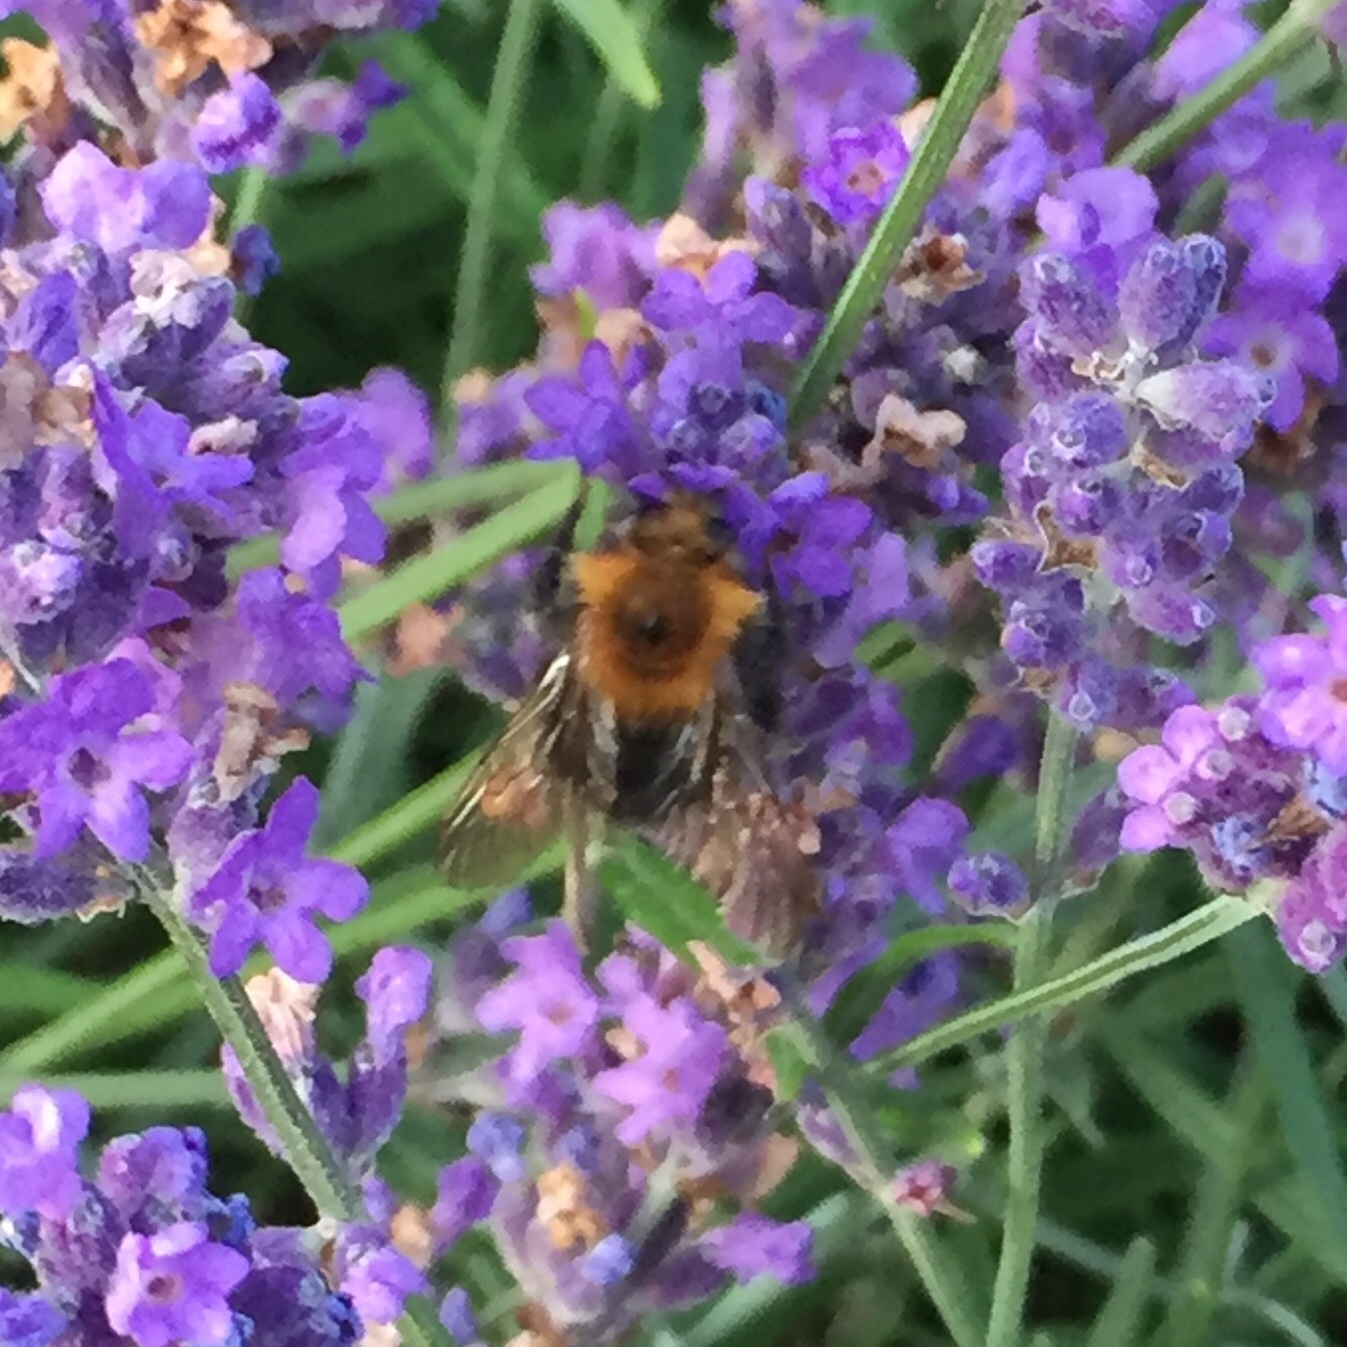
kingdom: Animalia
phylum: Arthropoda
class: Insecta
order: Hymenoptera
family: Apidae
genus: Bombus
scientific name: Bombus hypnorum
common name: New garden bumblebee
